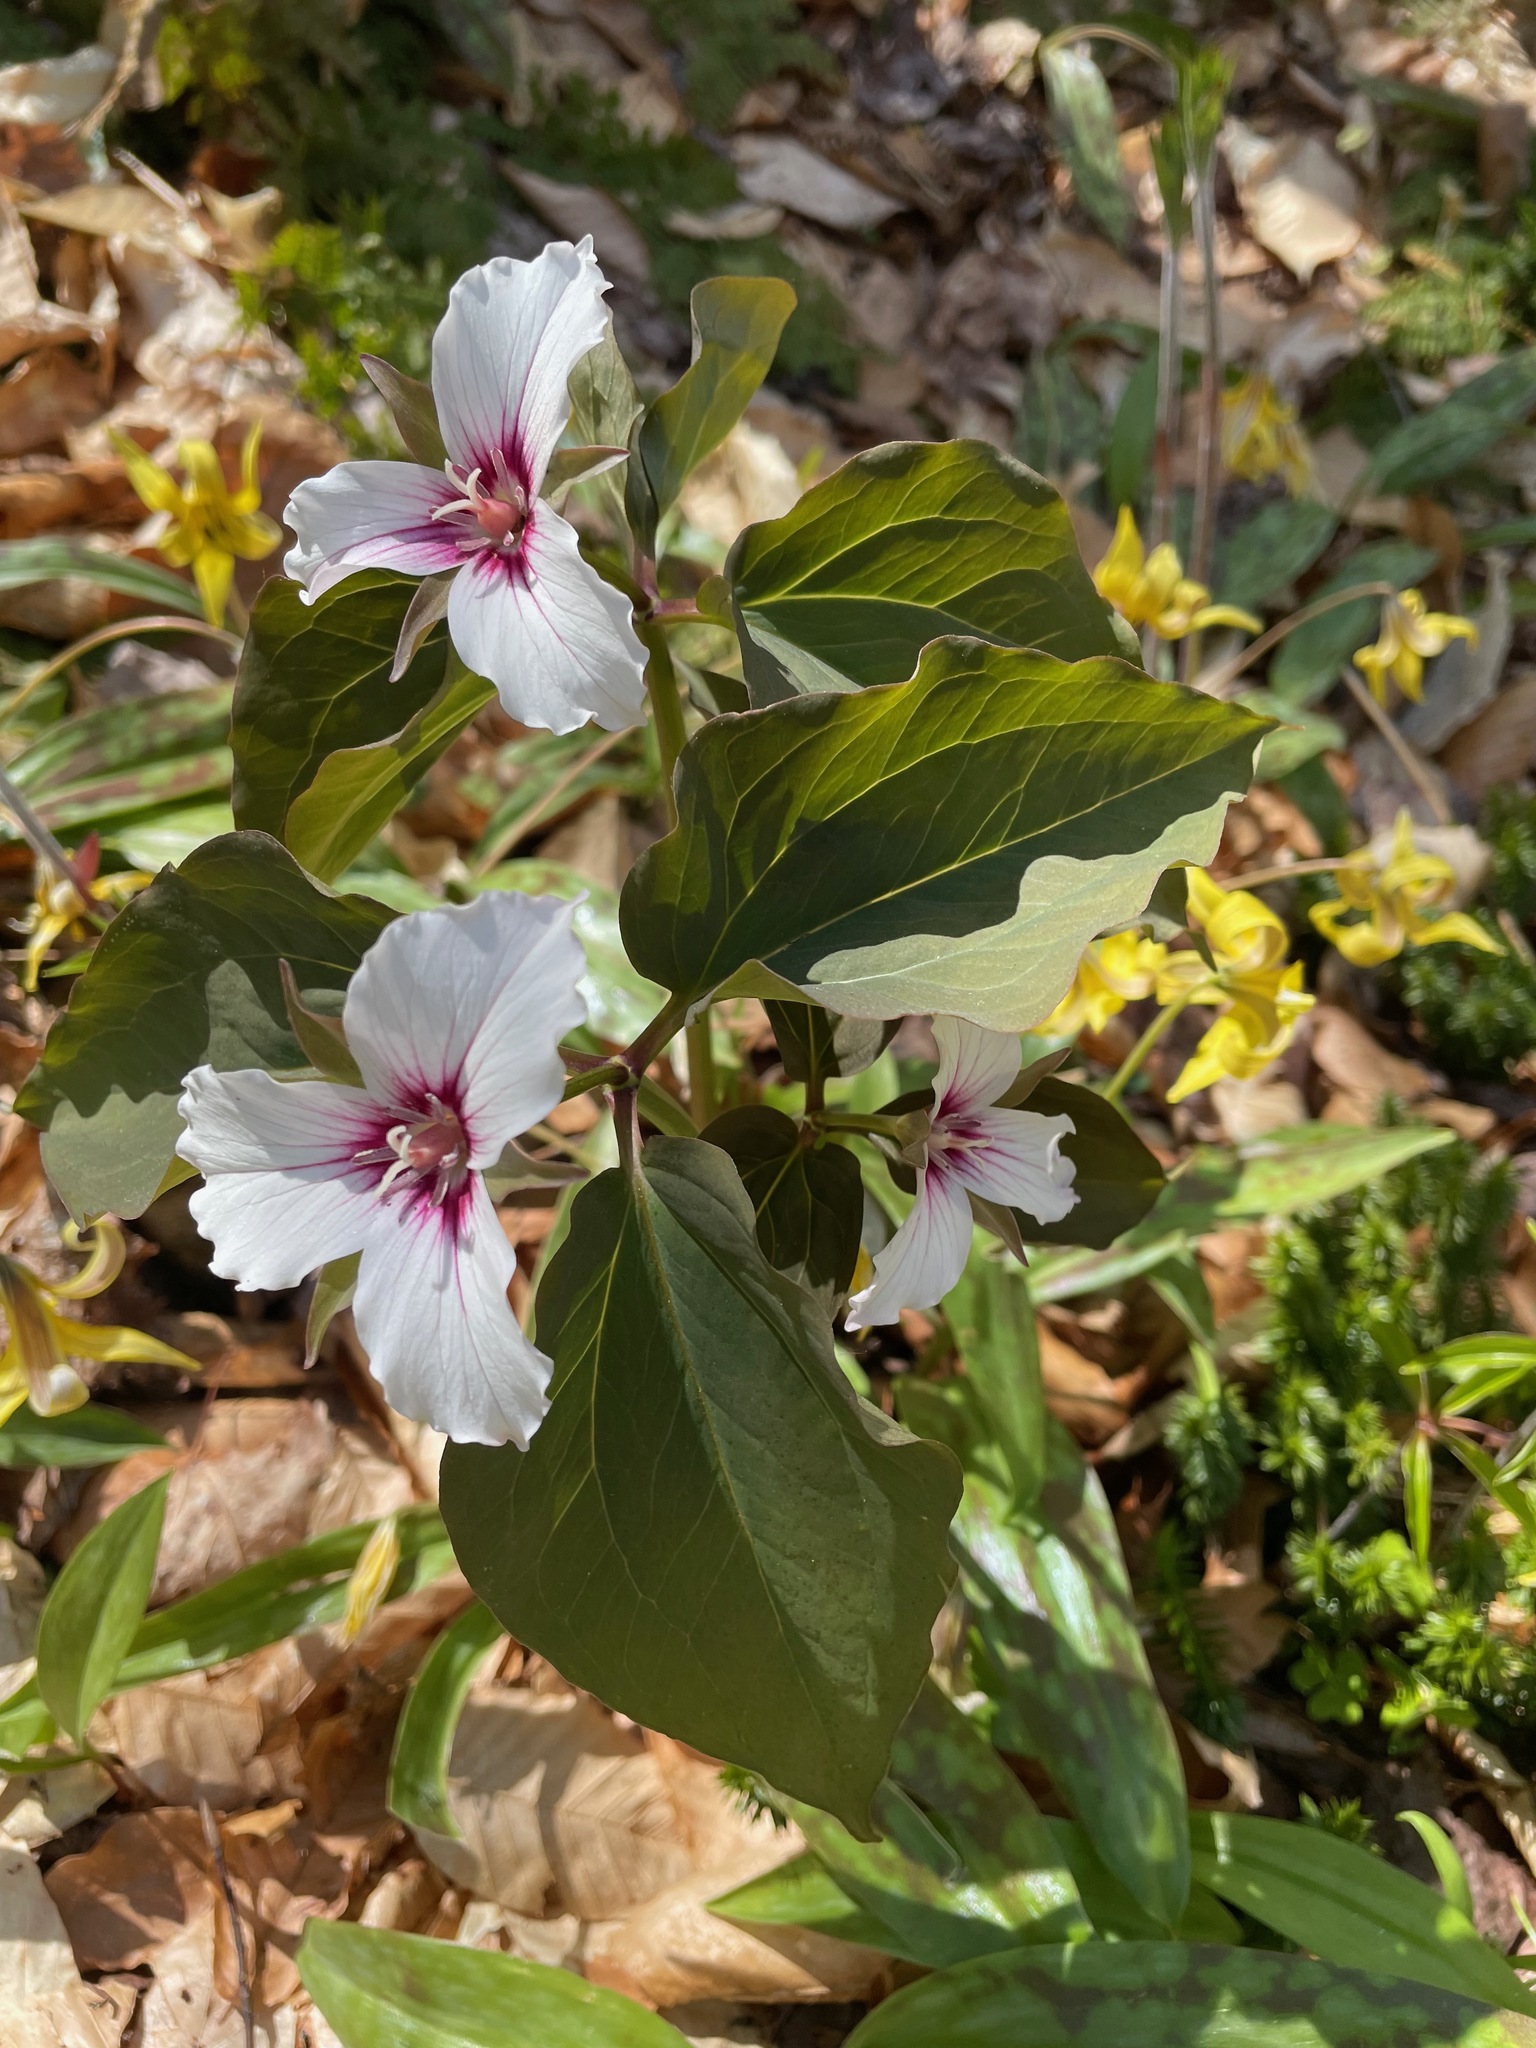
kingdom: Plantae
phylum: Tracheophyta
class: Liliopsida
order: Liliales
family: Melanthiaceae
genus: Trillium
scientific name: Trillium undulatum
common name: Paint trillium
